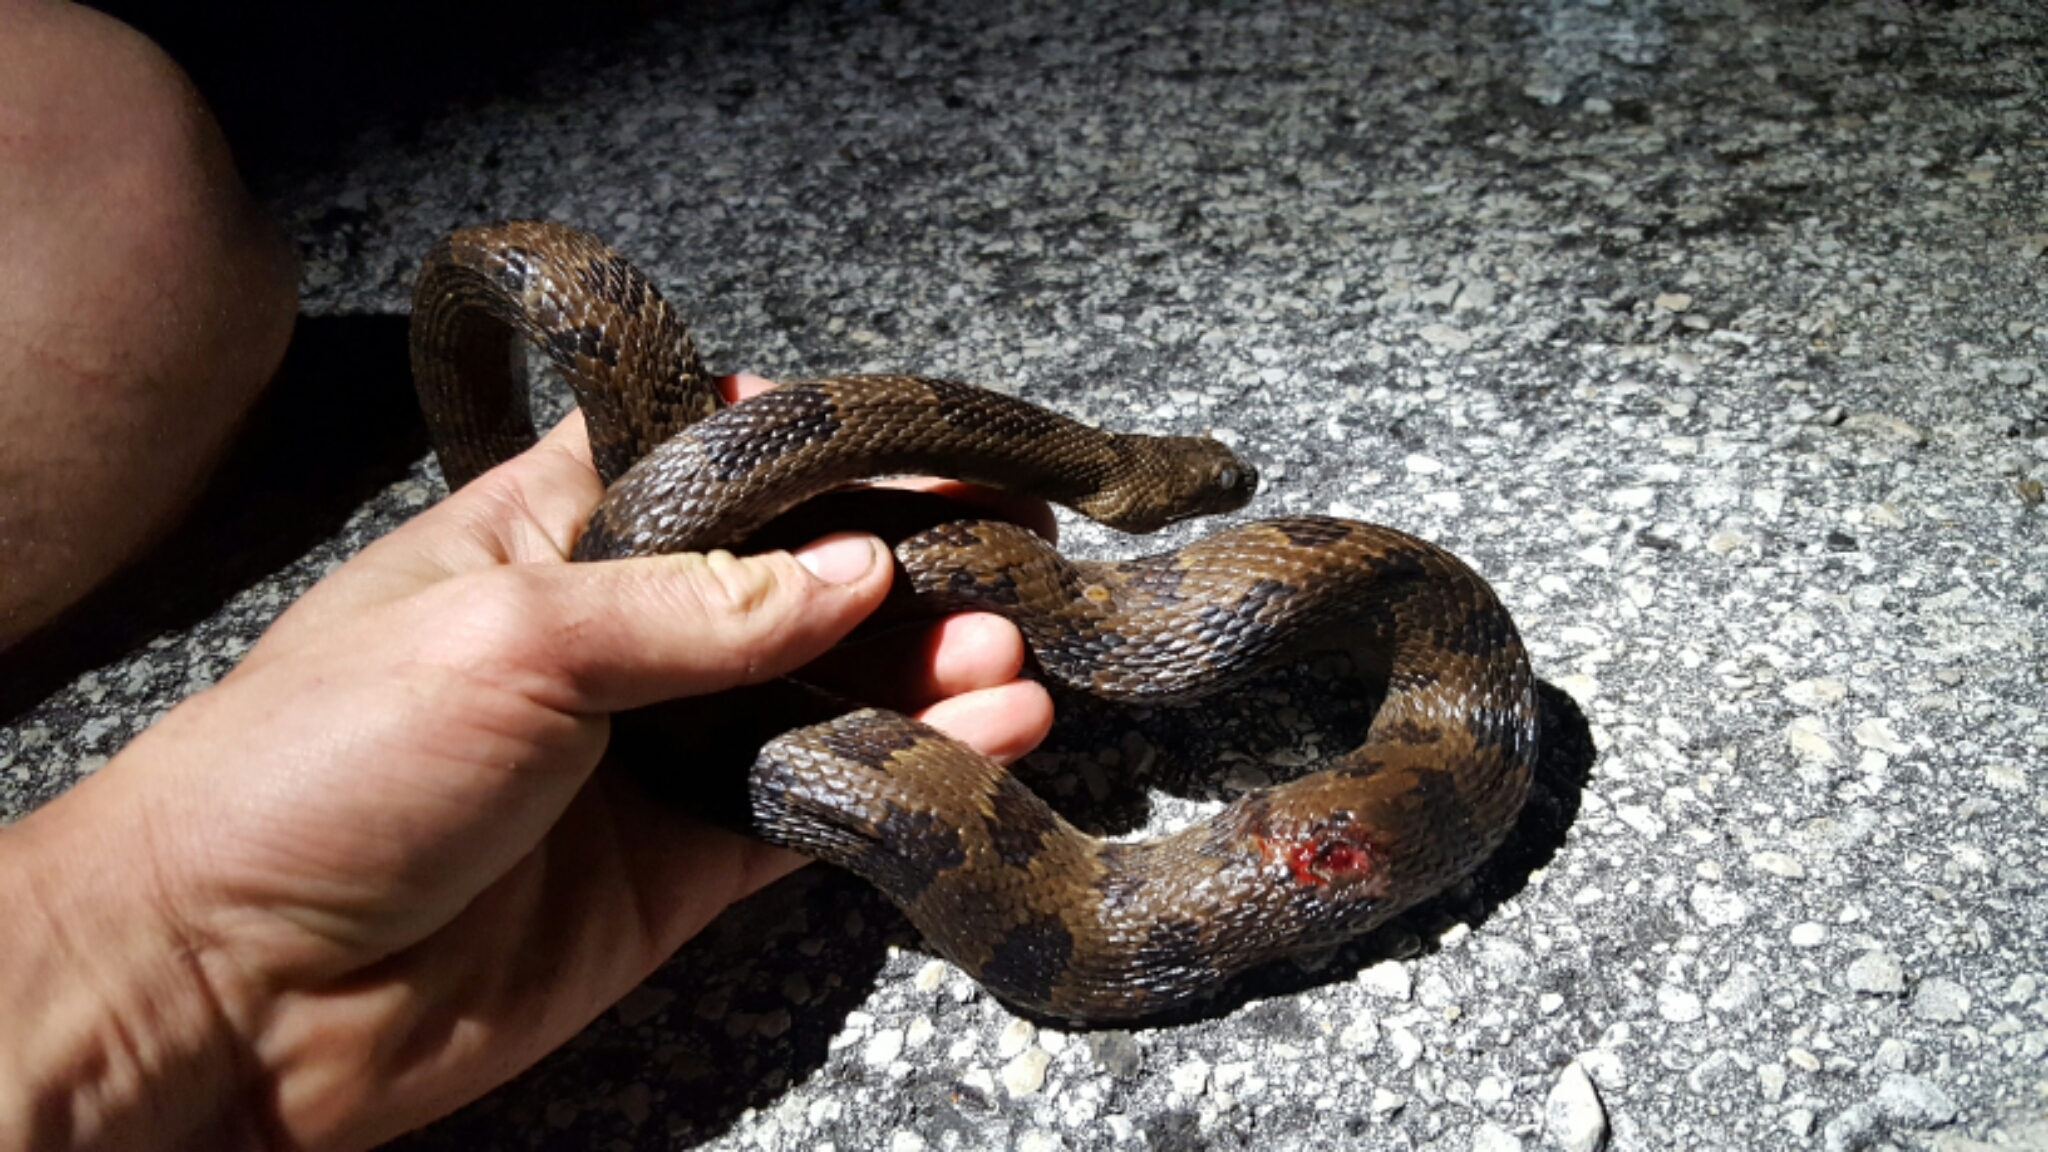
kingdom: Animalia
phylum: Chordata
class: Squamata
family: Colubridae
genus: Nerodia
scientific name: Nerodia taxispilota
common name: Brown water snake
